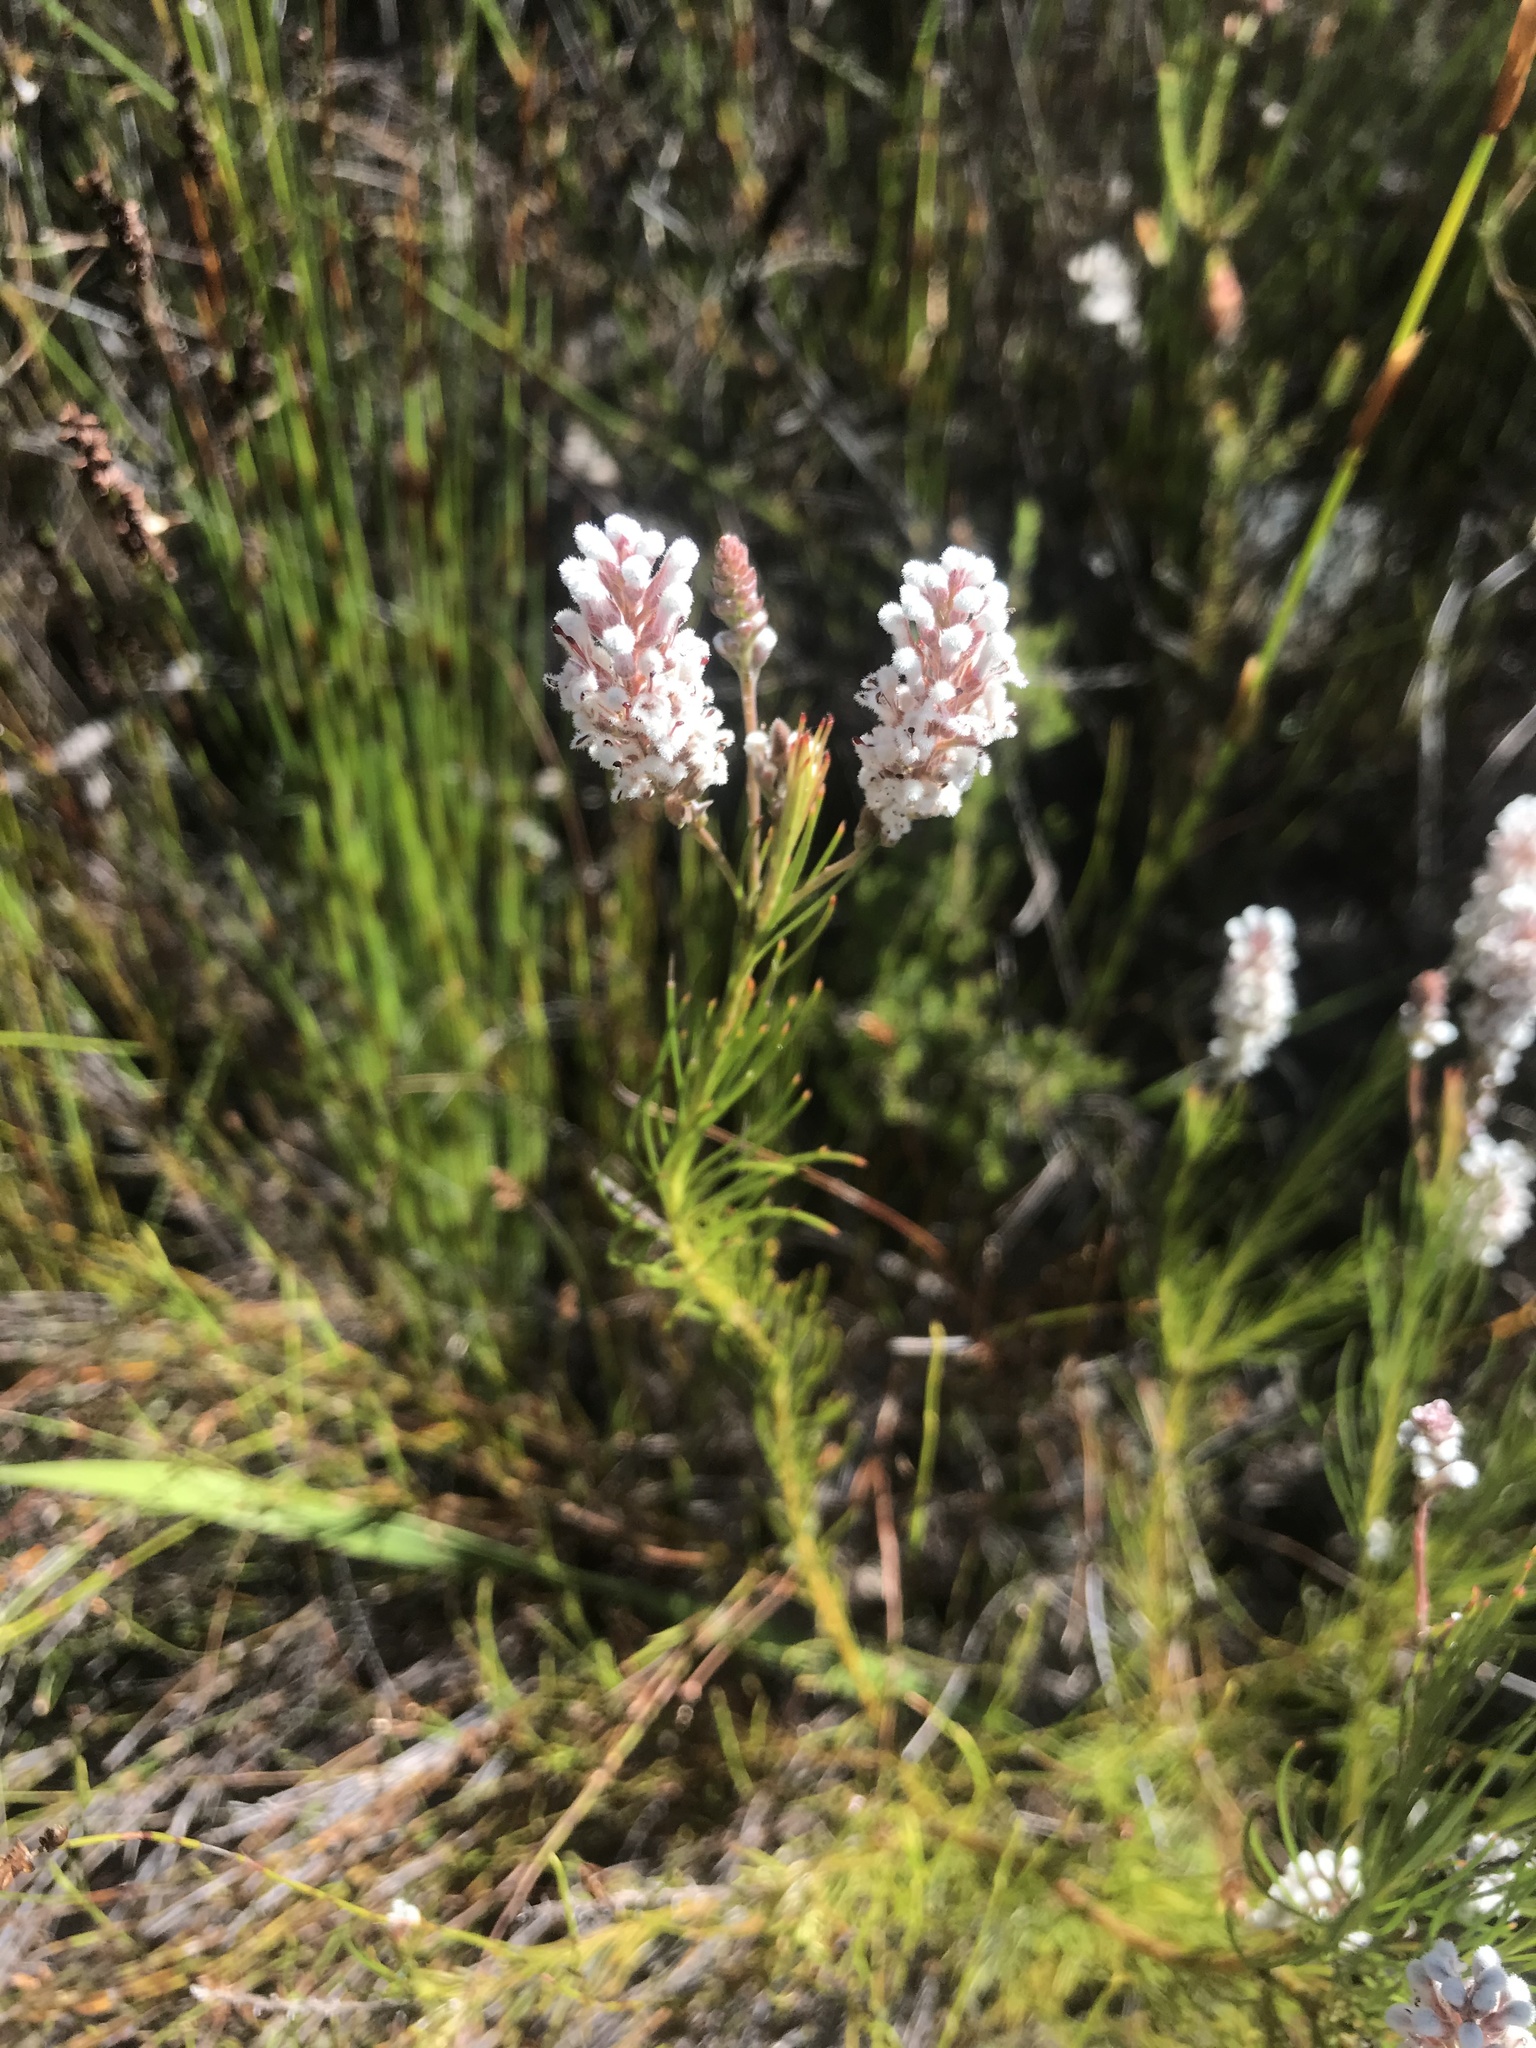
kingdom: Plantae
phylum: Tracheophyta
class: Magnoliopsida
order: Proteales
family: Proteaceae
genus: Spatalla
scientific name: Spatalla racemosa
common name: Lax-stalked spoon
